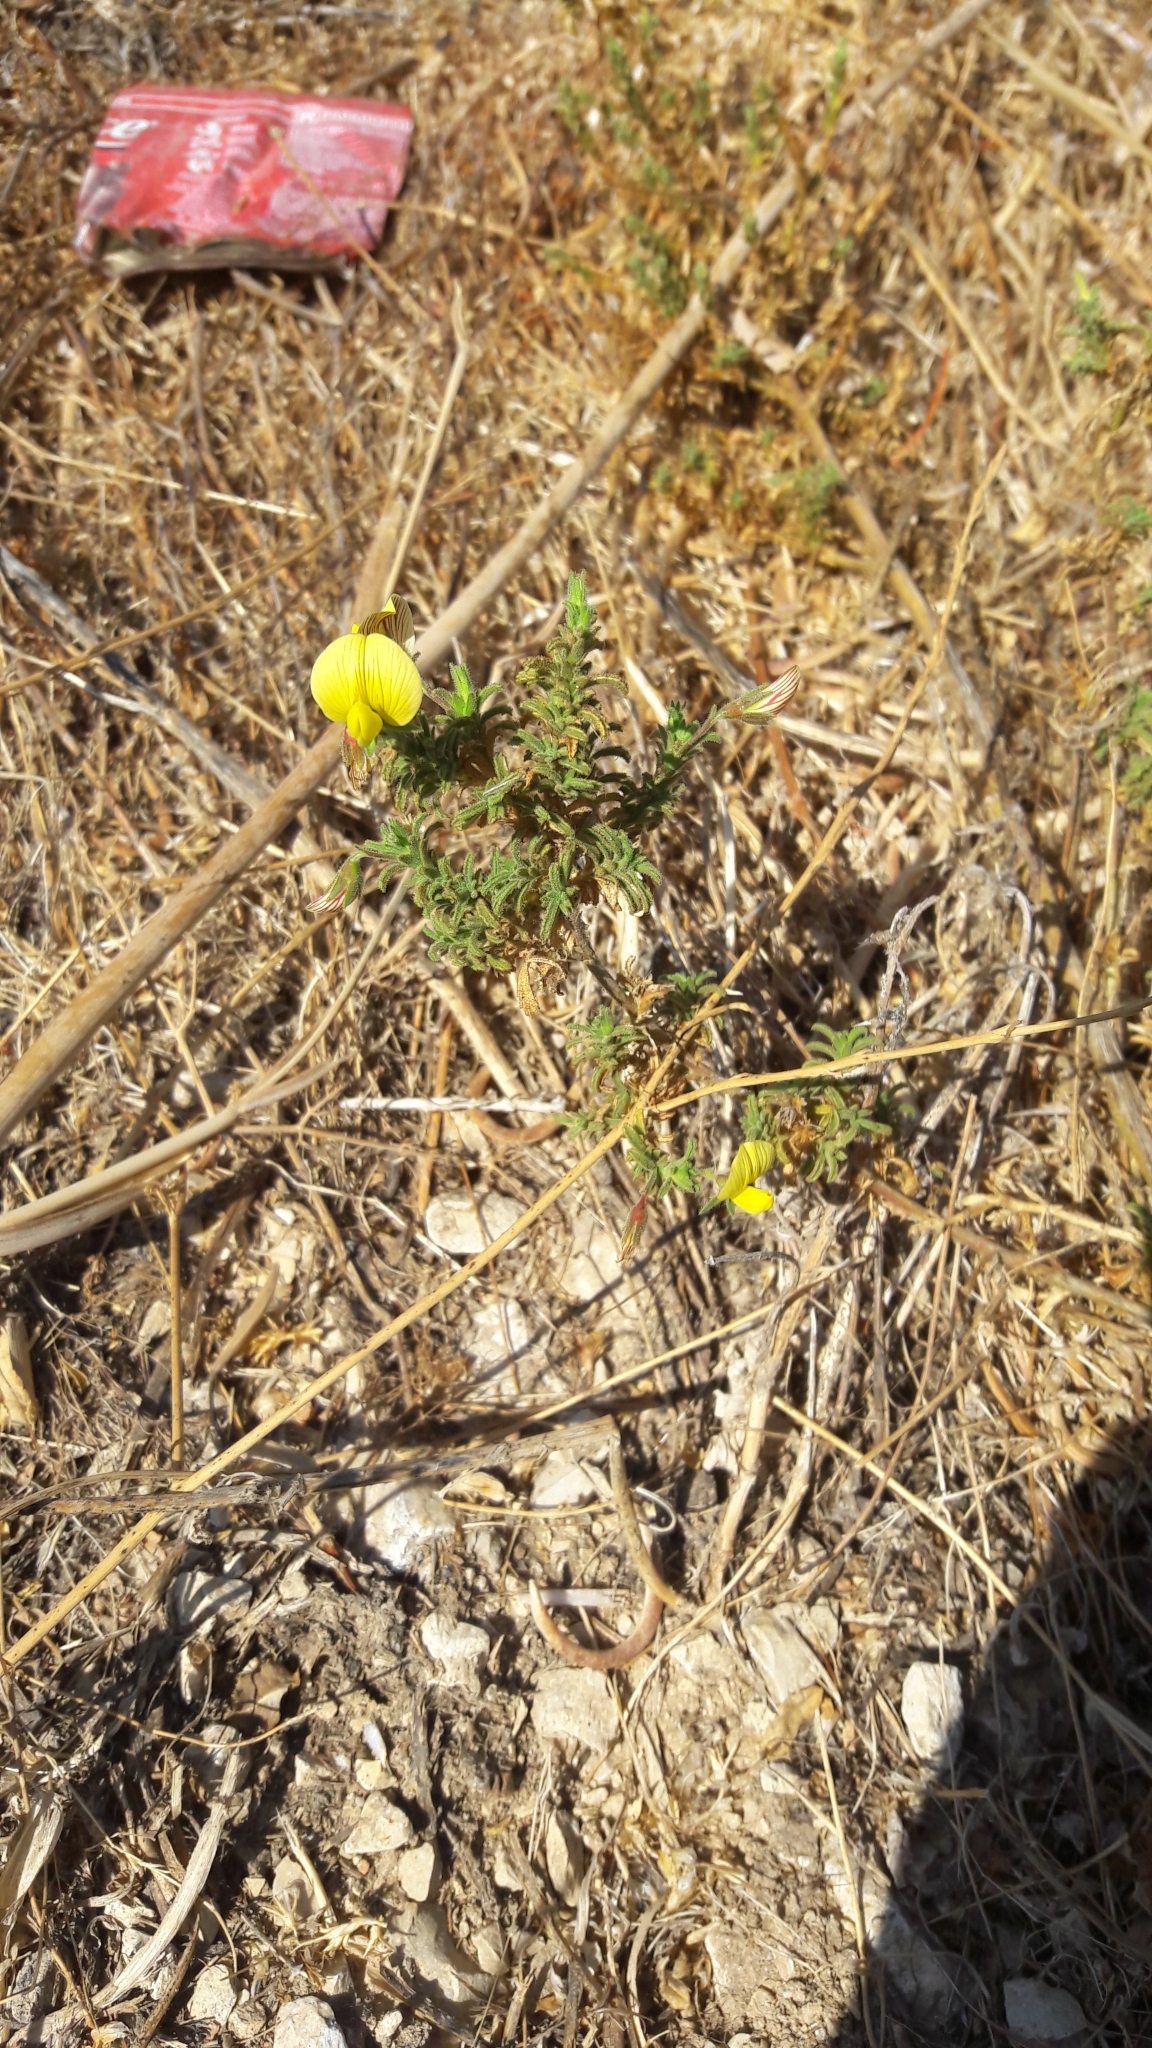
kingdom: Plantae
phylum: Tracheophyta
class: Magnoliopsida
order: Fabales
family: Fabaceae
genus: Ononis
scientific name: Ononis natrix
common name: Yellow restharrow
